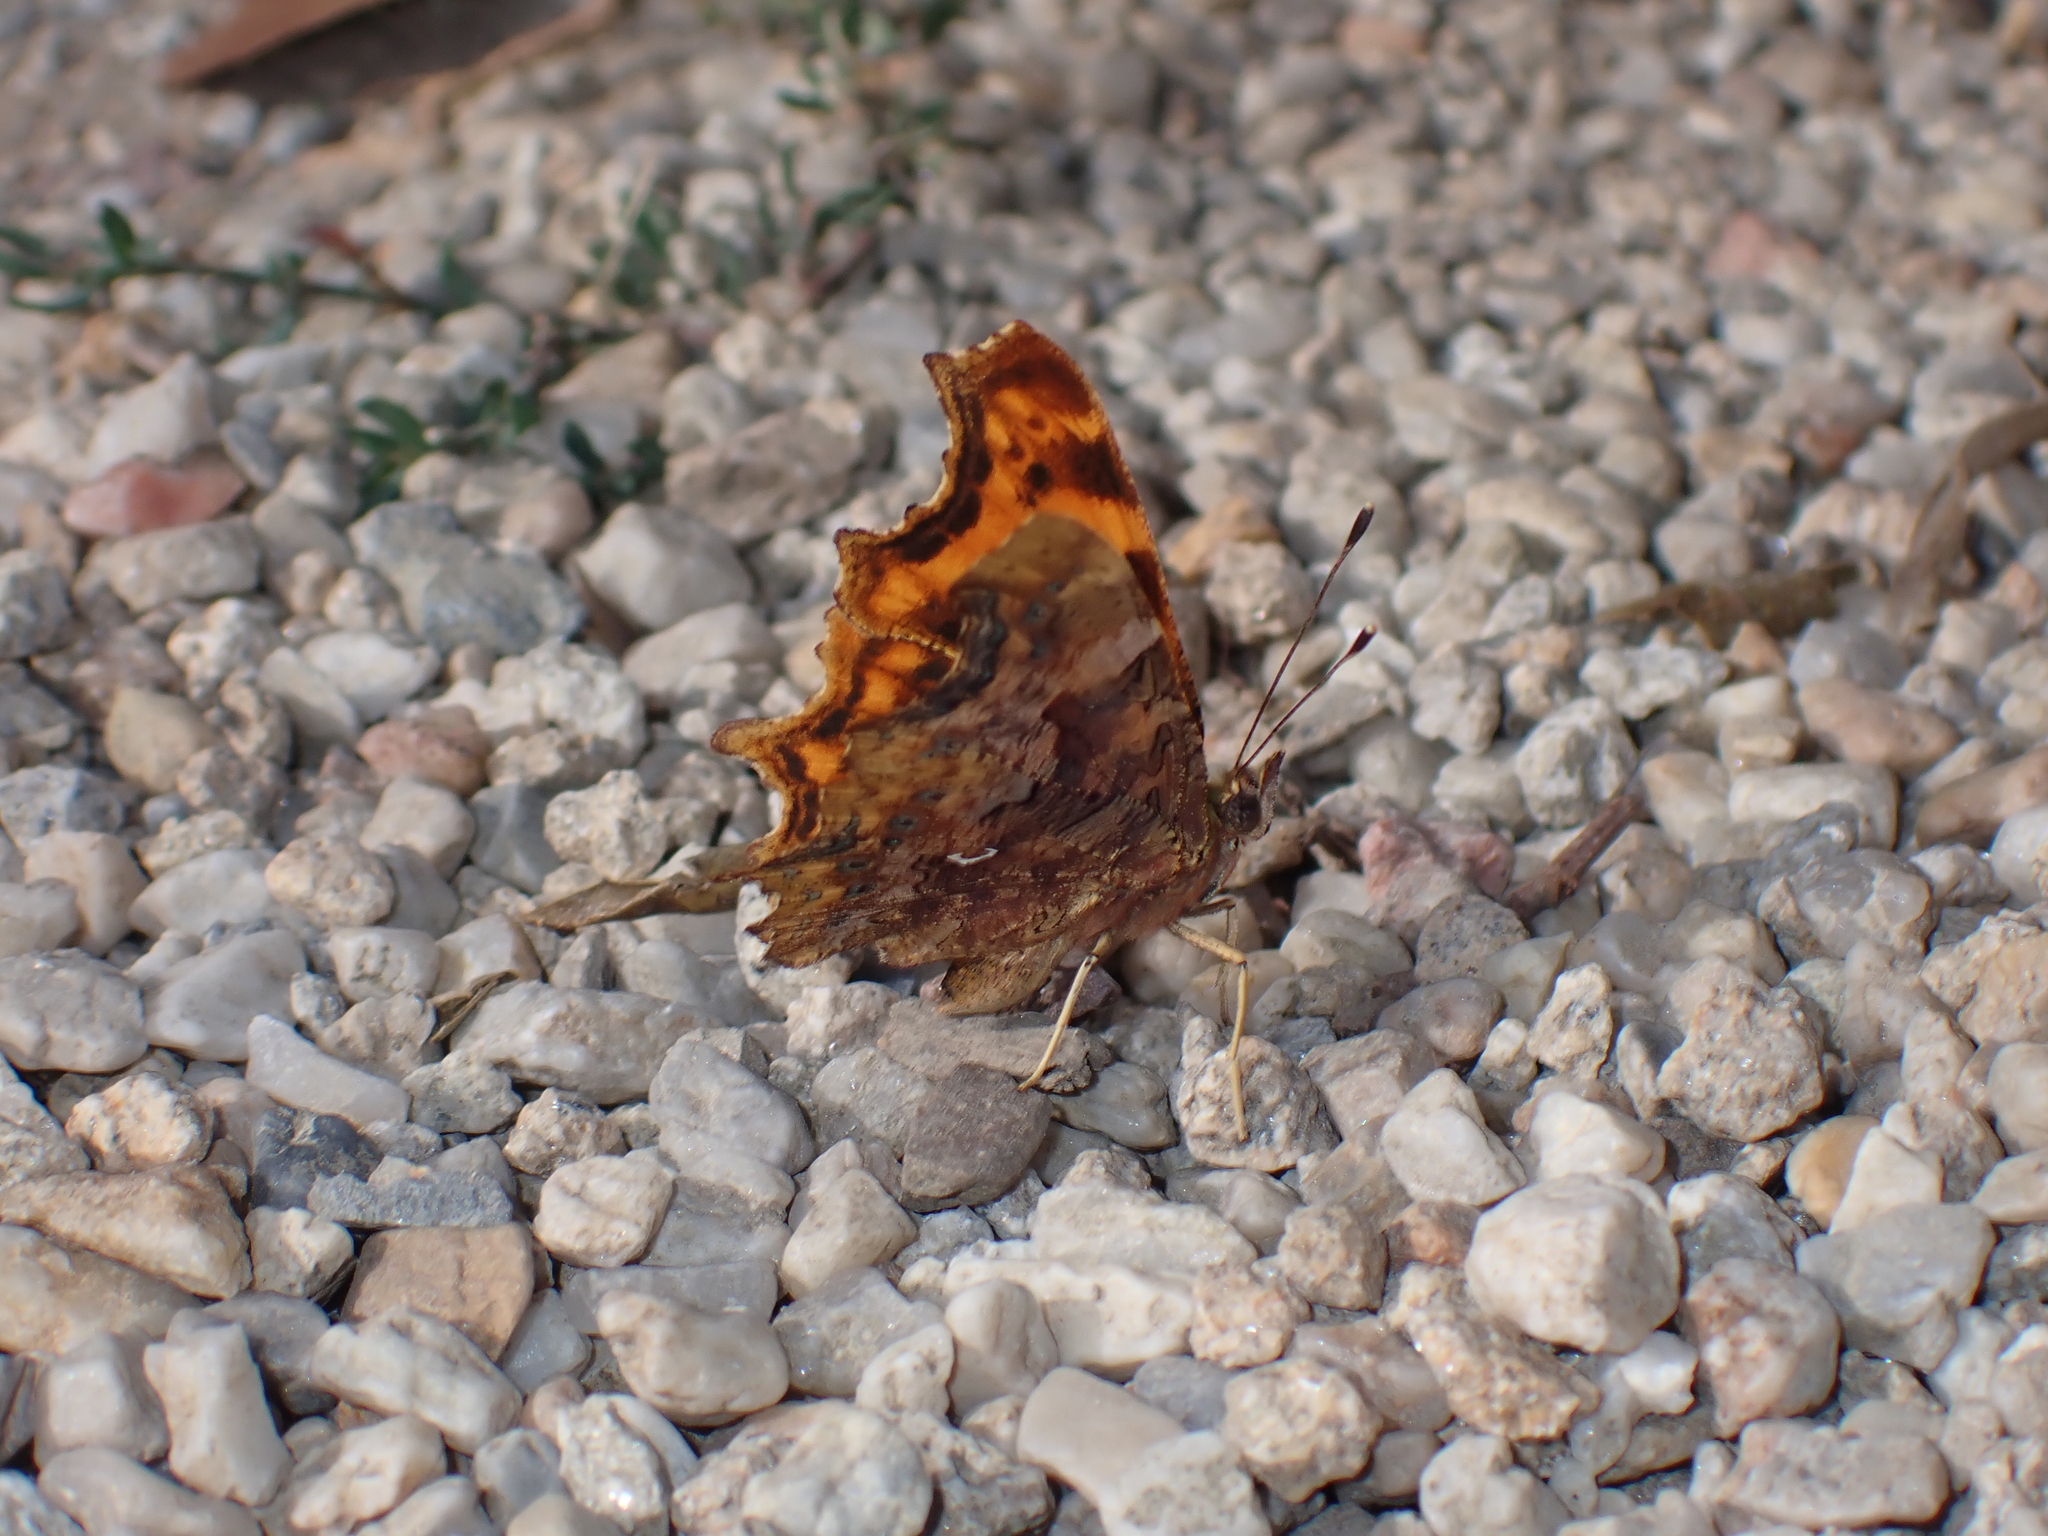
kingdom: Animalia
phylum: Arthropoda
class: Insecta
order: Lepidoptera
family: Nymphalidae
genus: Polygonia
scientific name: Polygonia c-album
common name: Comma
